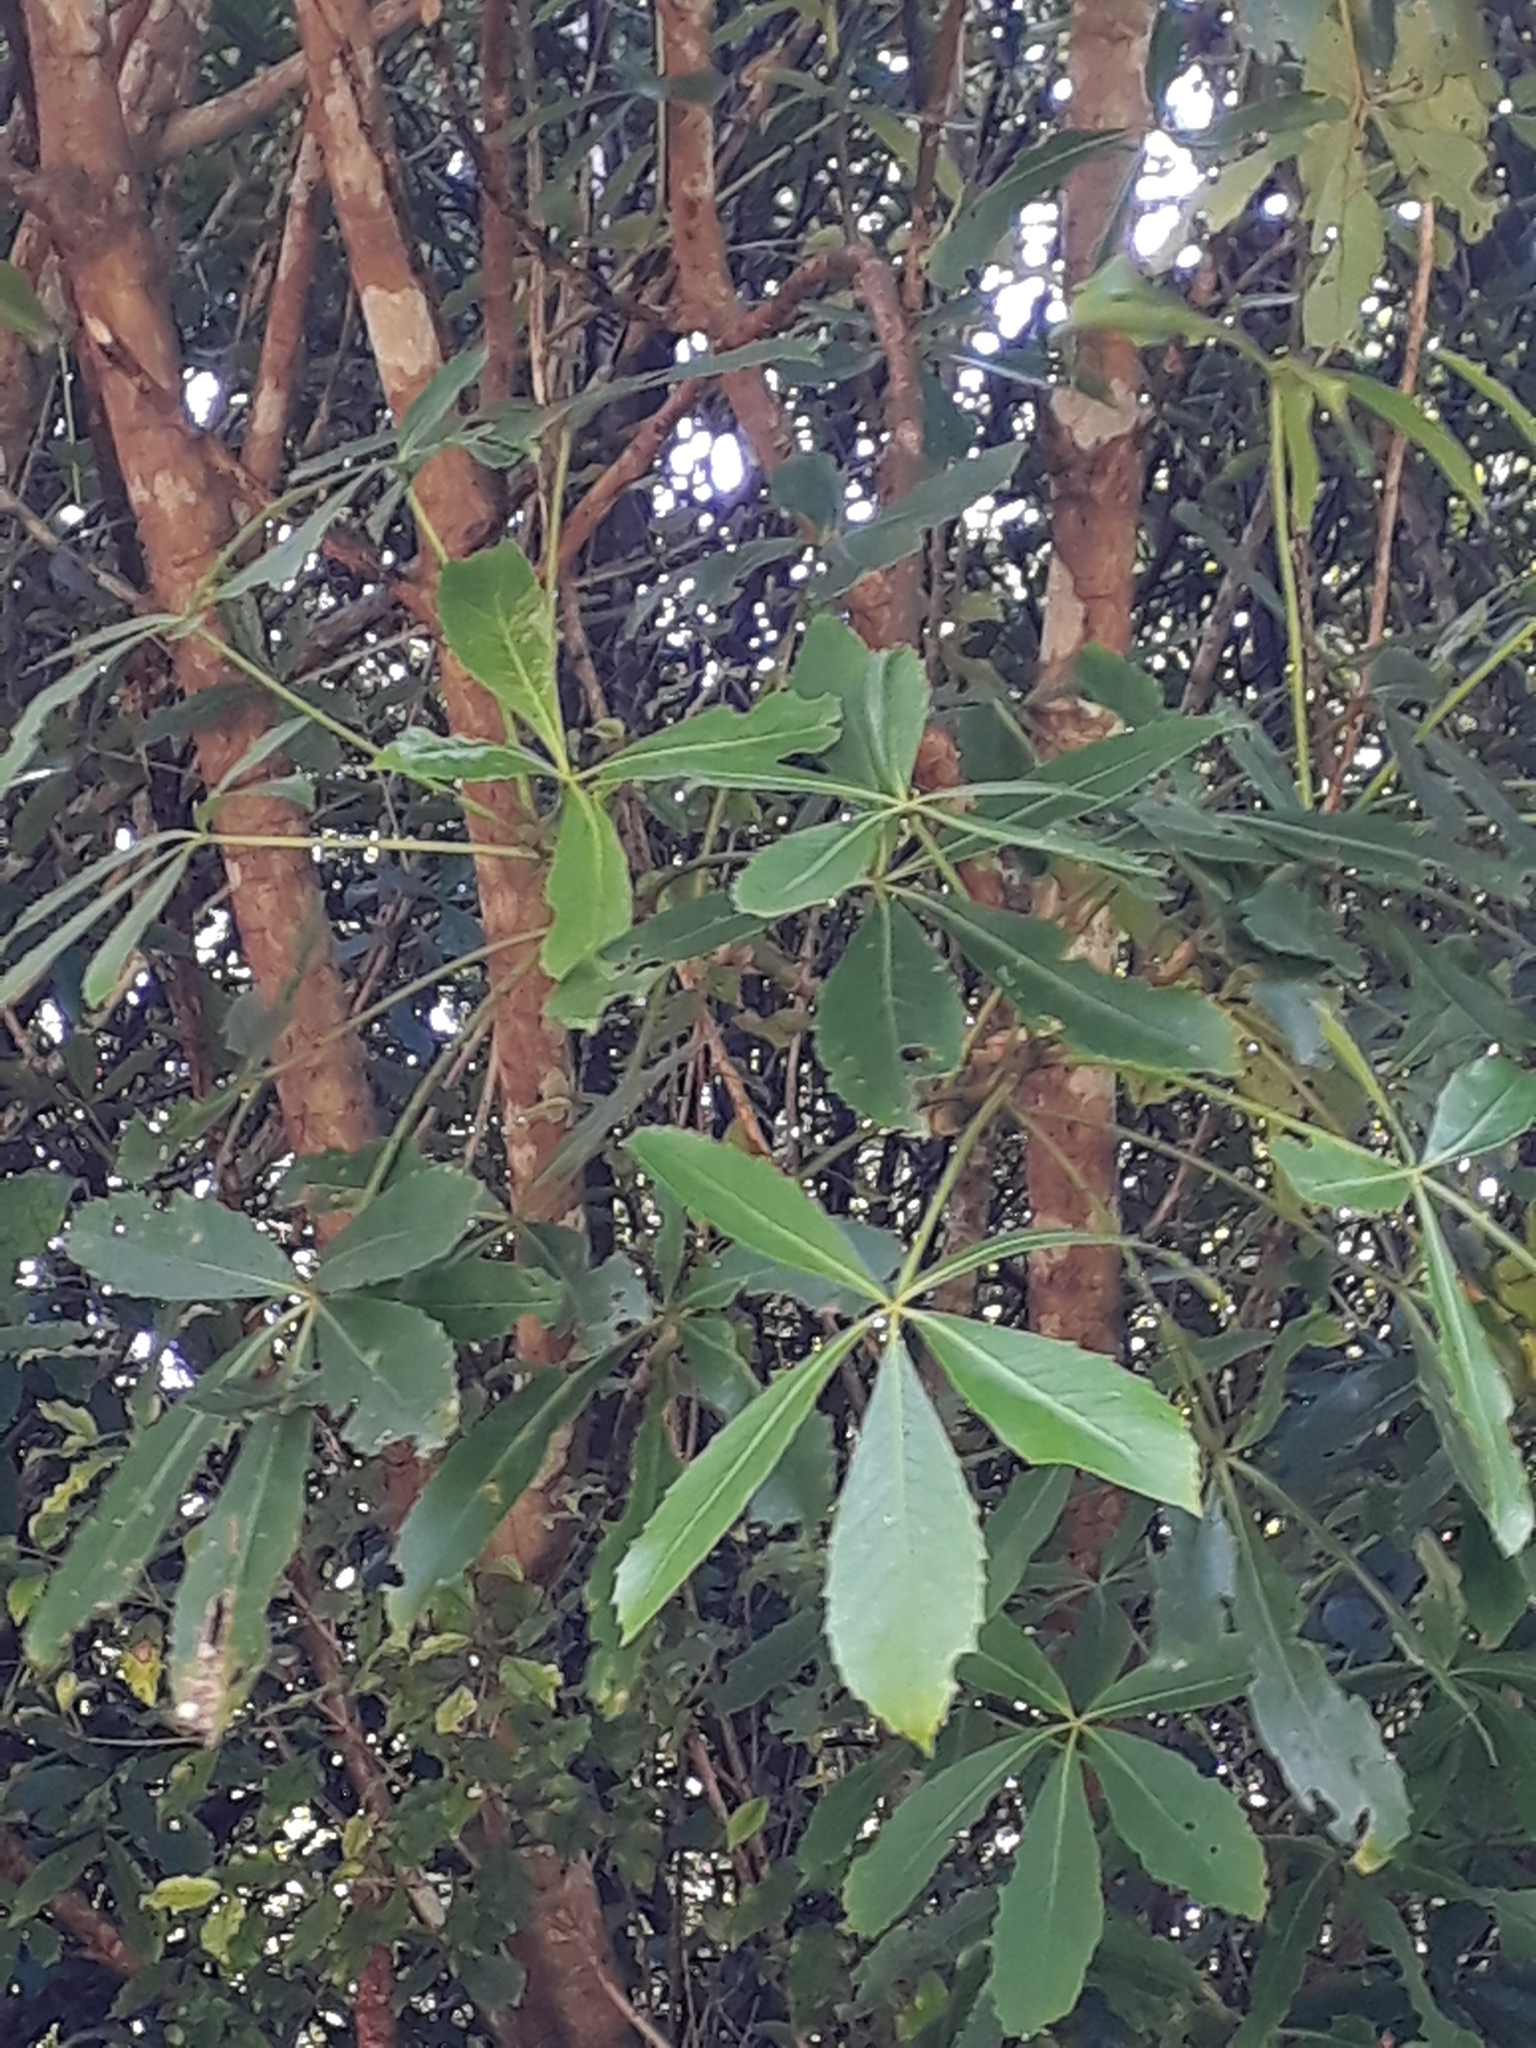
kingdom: Plantae
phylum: Tracheophyta
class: Magnoliopsida
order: Apiales
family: Araliaceae
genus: Neopanax
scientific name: Neopanax colensoi
